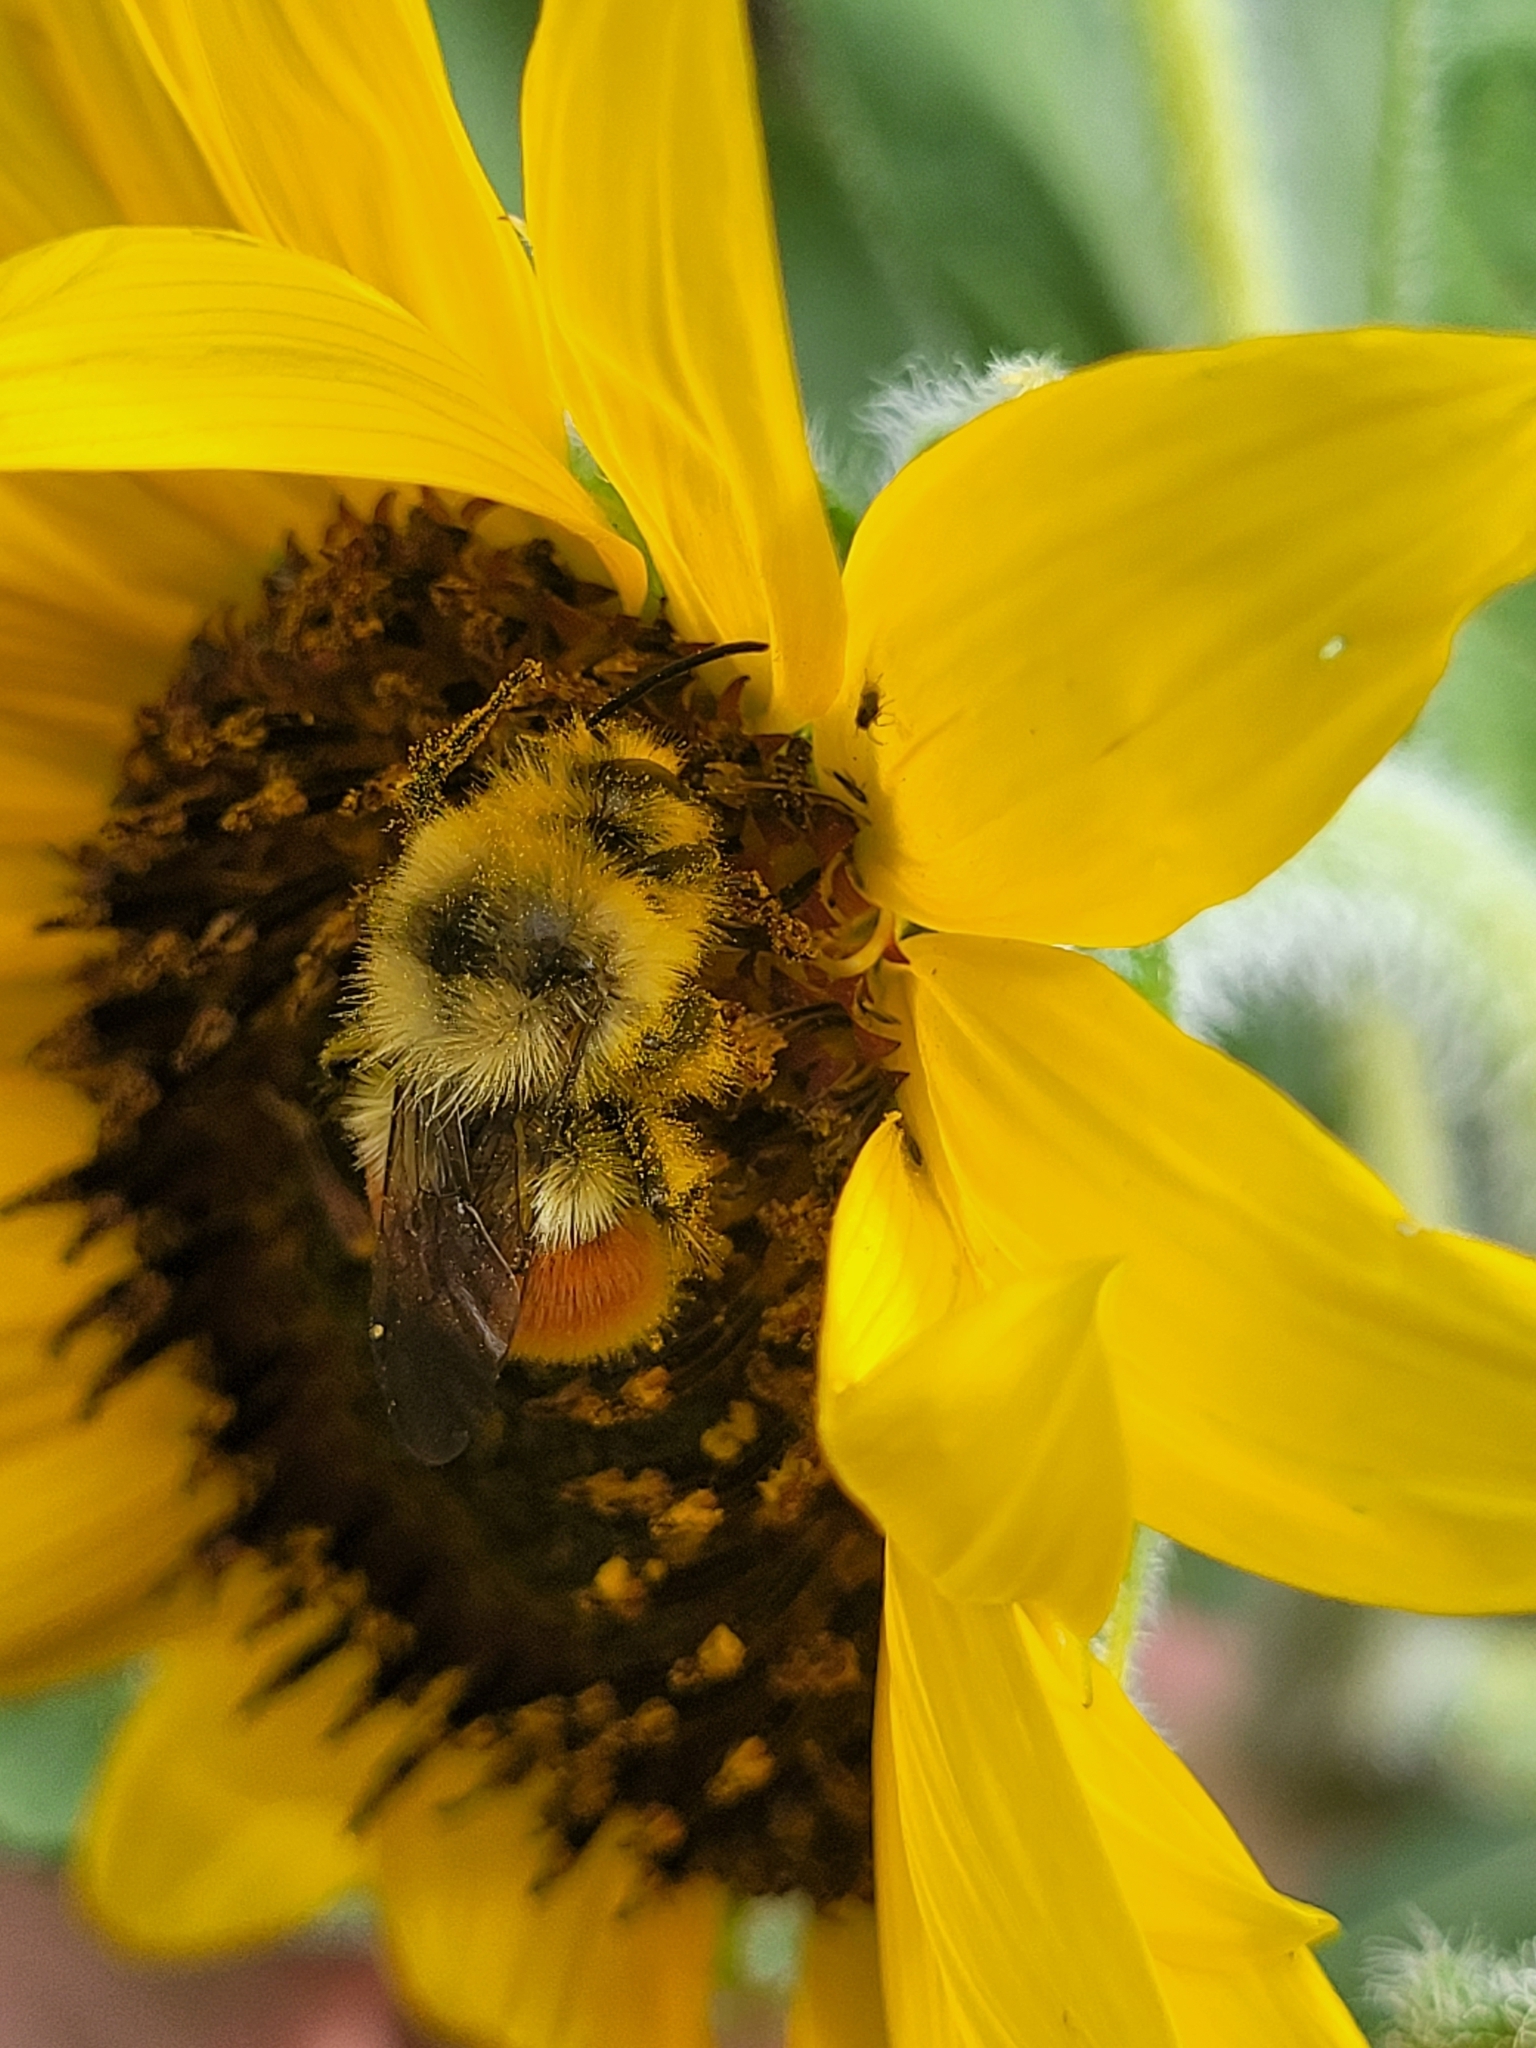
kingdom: Animalia
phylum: Arthropoda
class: Insecta
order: Hymenoptera
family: Apidae
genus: Bombus
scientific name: Bombus huntii
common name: Hunt bumble bee
